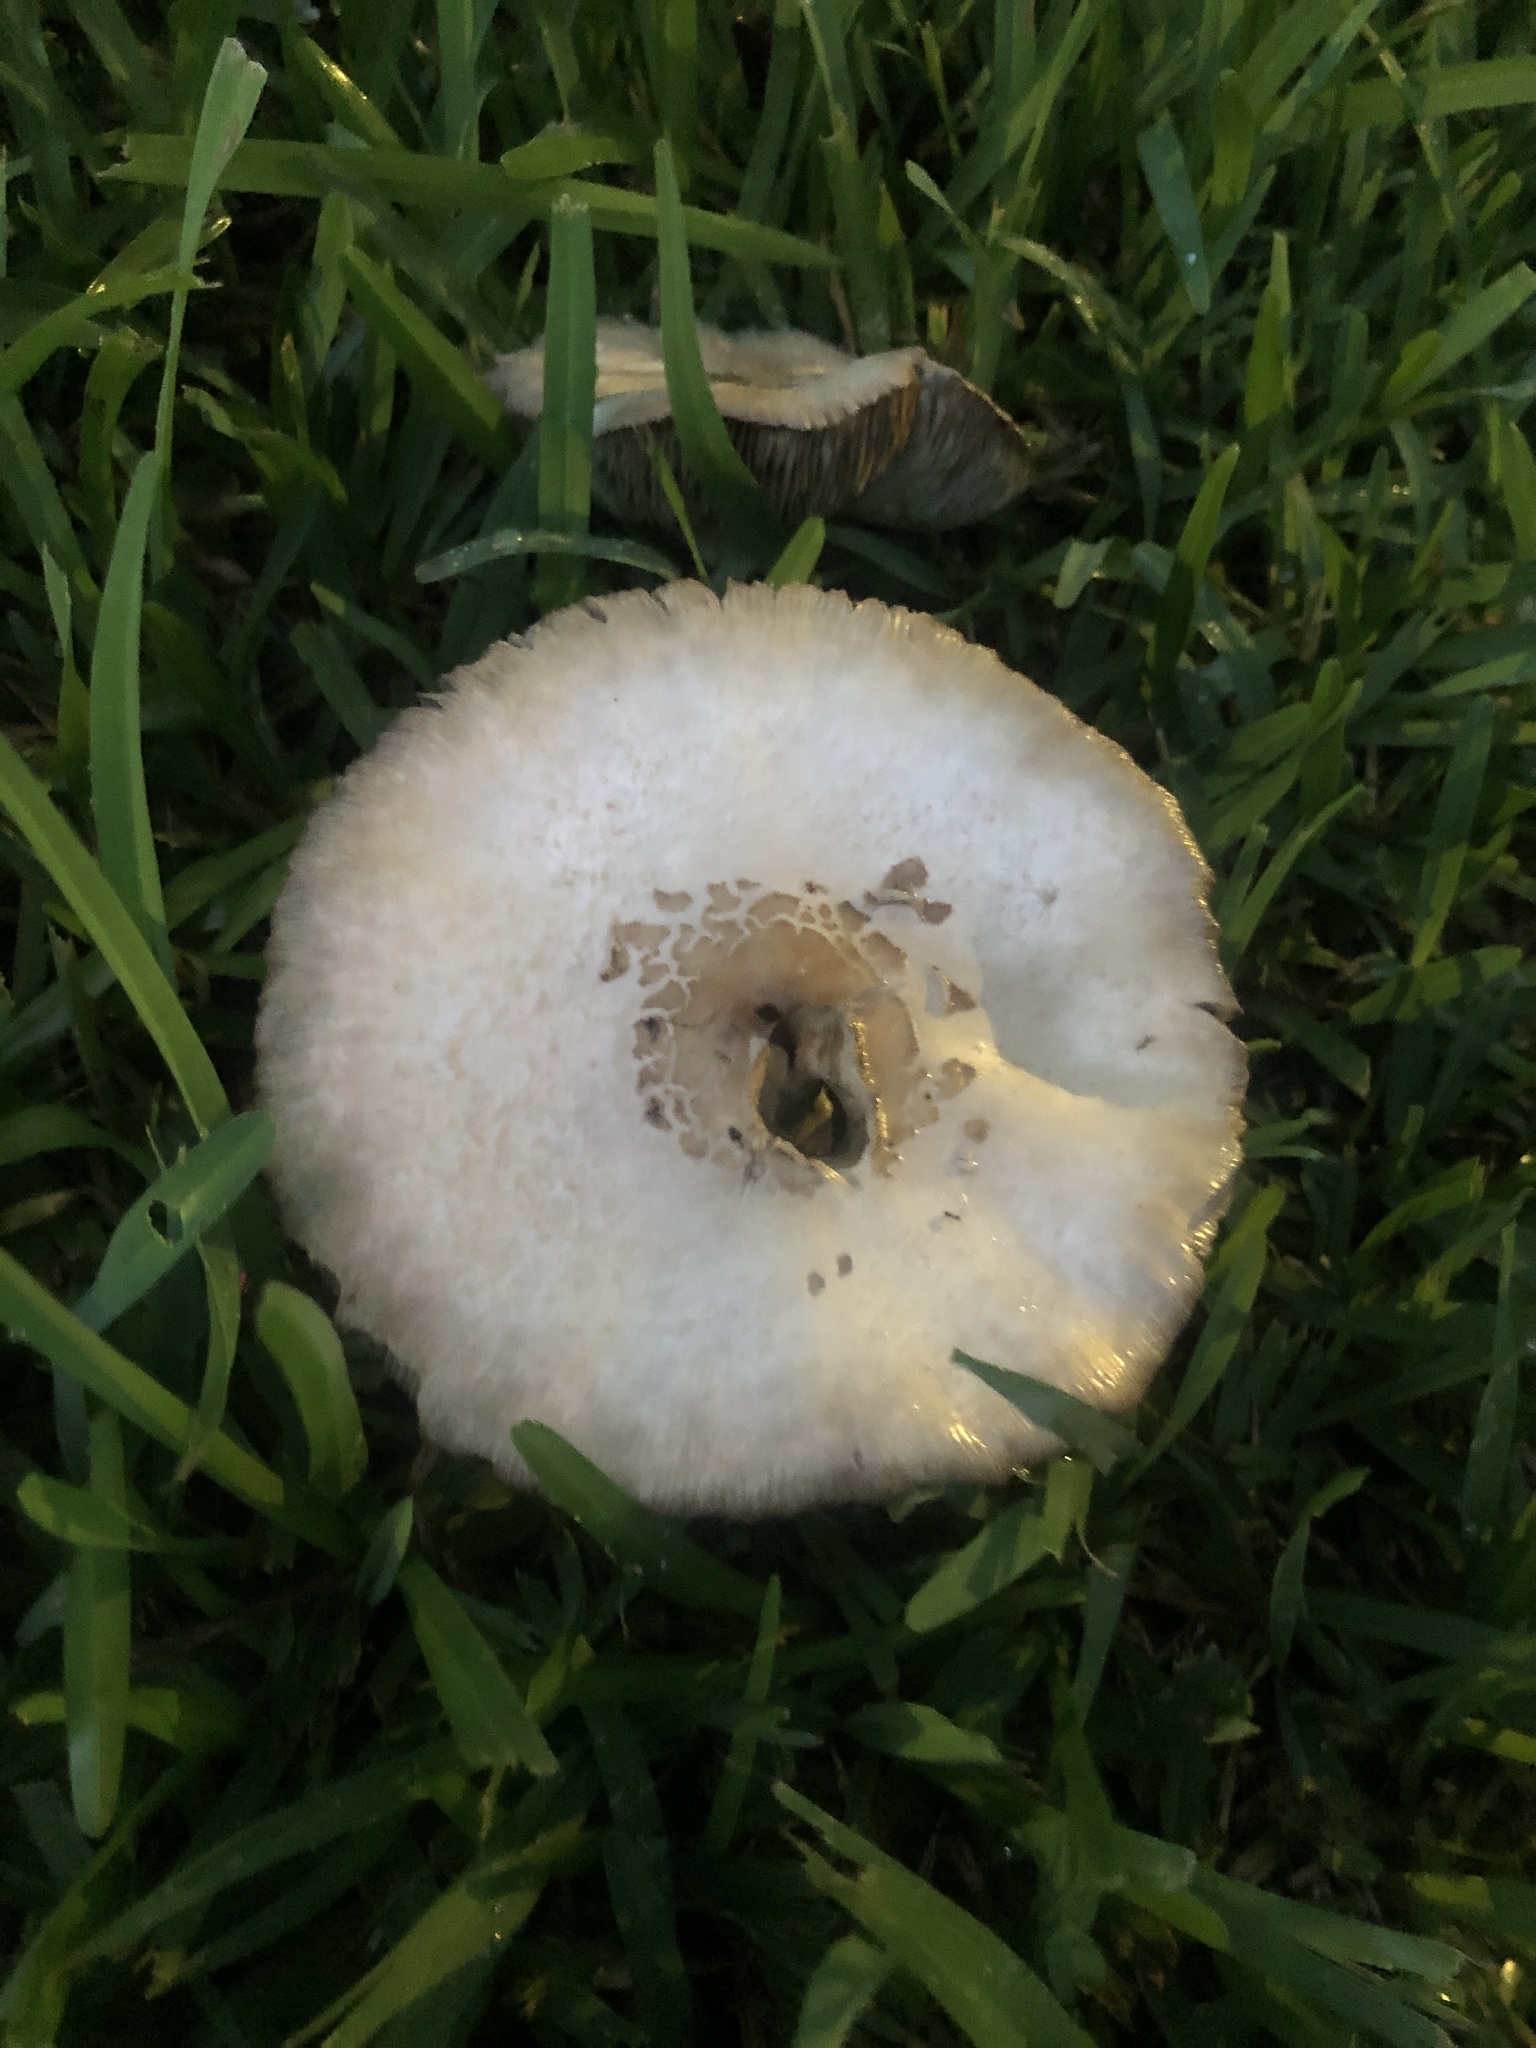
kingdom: Fungi
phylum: Basidiomycota
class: Agaricomycetes
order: Agaricales
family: Agaricaceae
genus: Chlorophyllum
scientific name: Chlorophyllum molybdites
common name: False parasol
